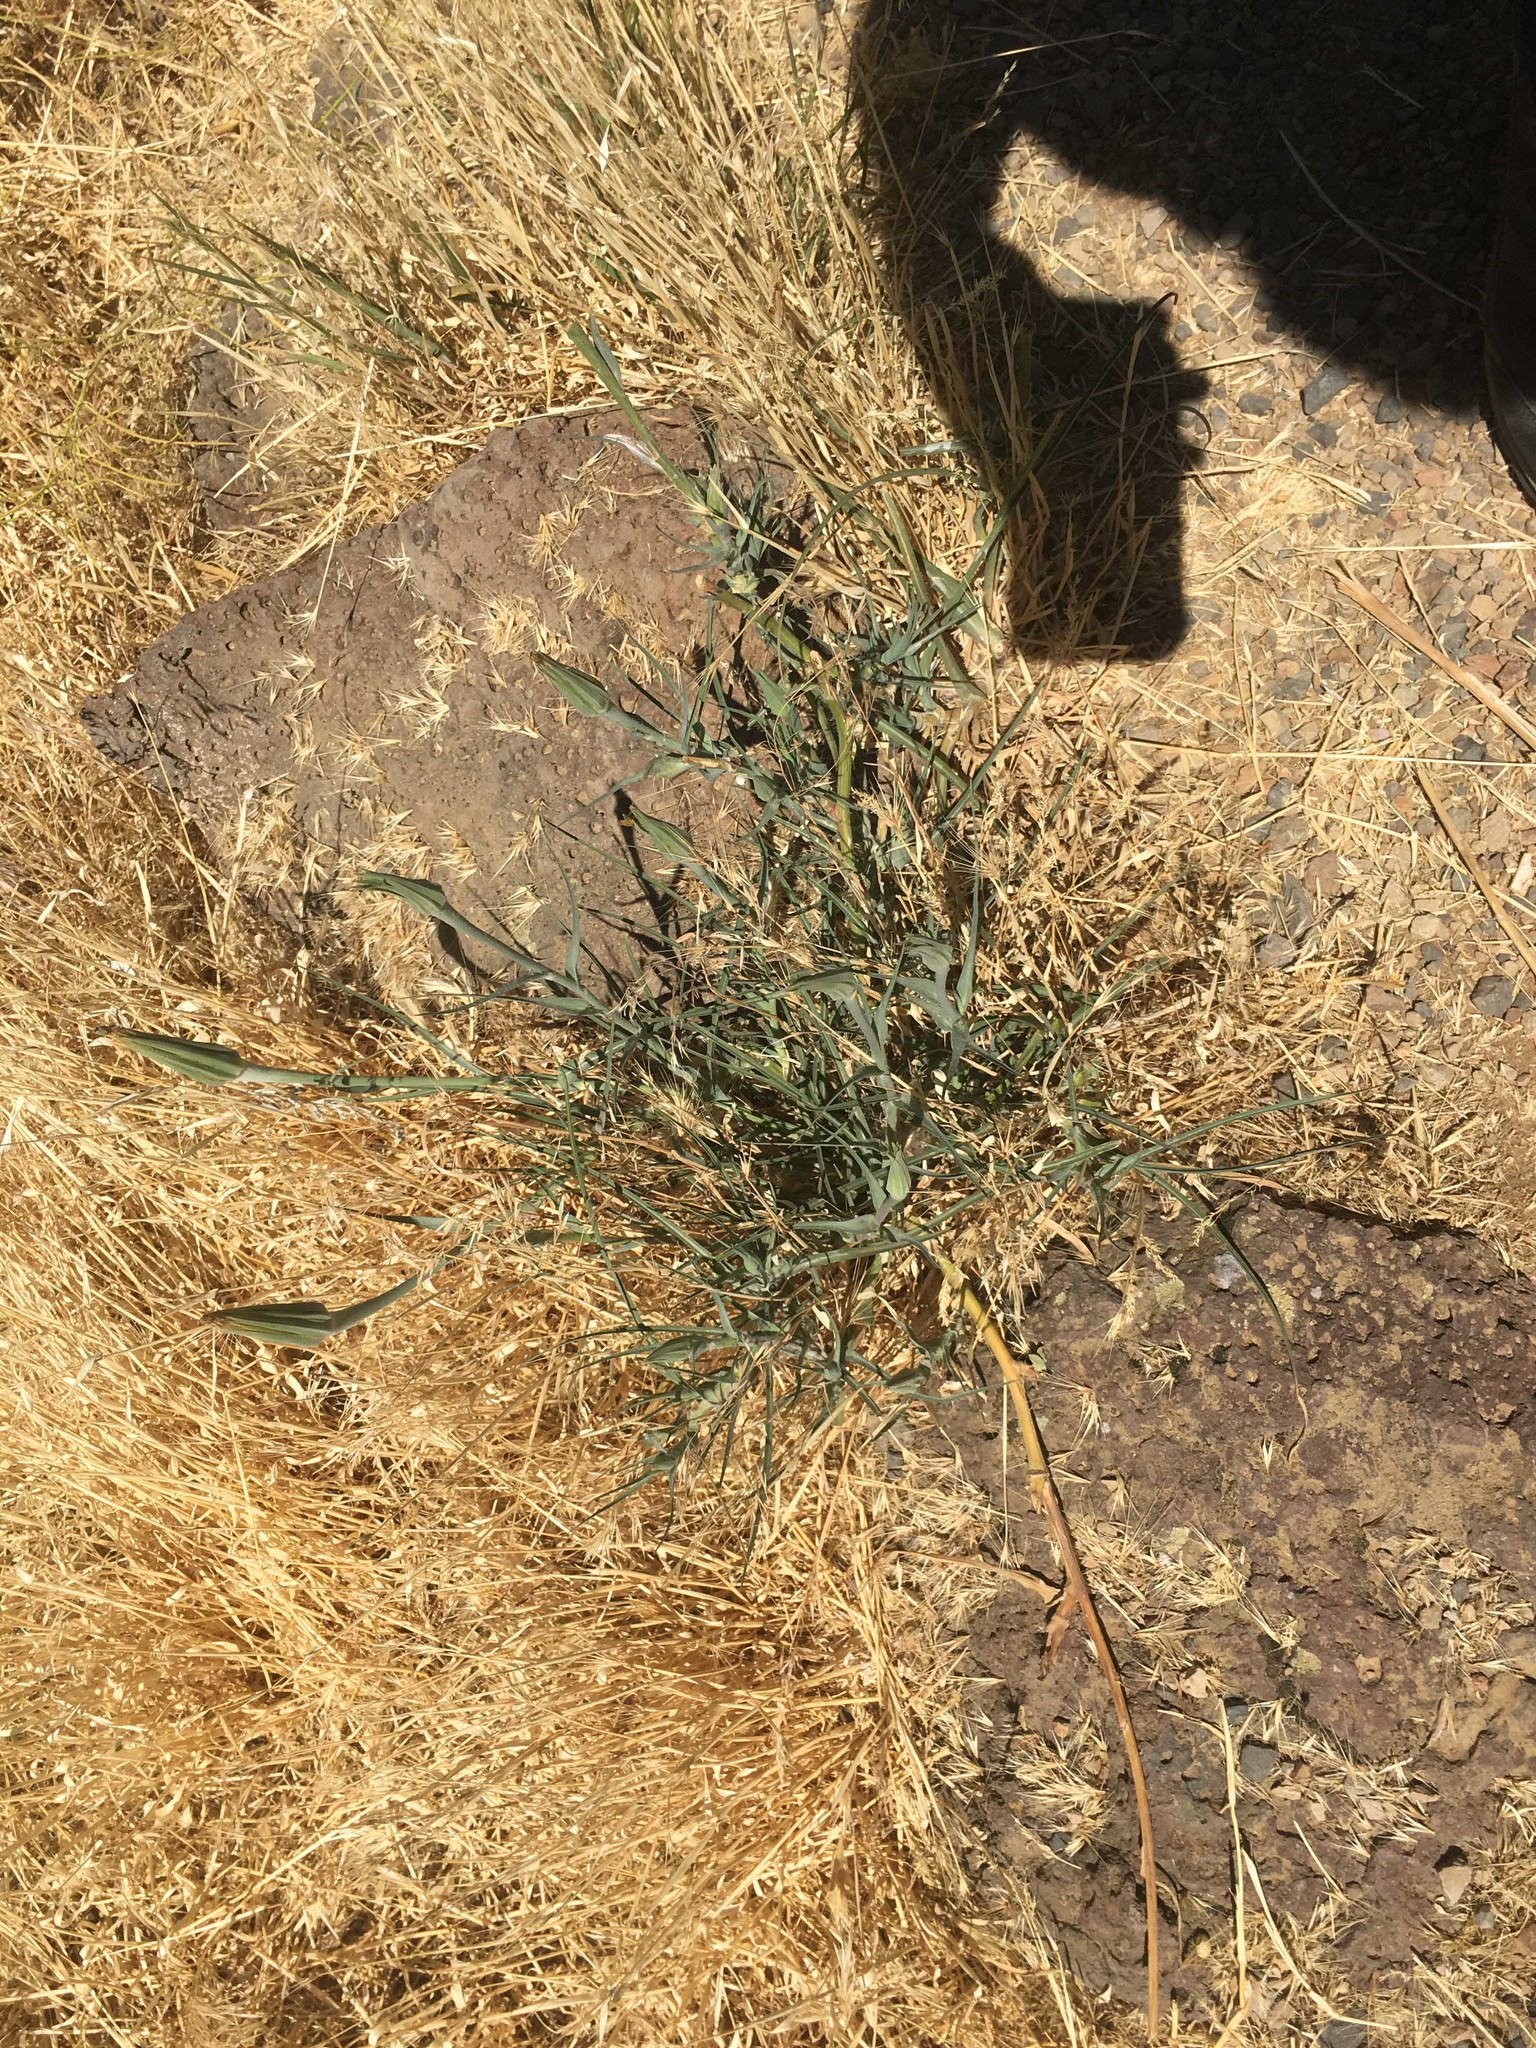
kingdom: Plantae
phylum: Tracheophyta
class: Magnoliopsida
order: Asterales
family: Asteraceae
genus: Tragopogon
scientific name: Tragopogon dubius
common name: Yellow salsify
